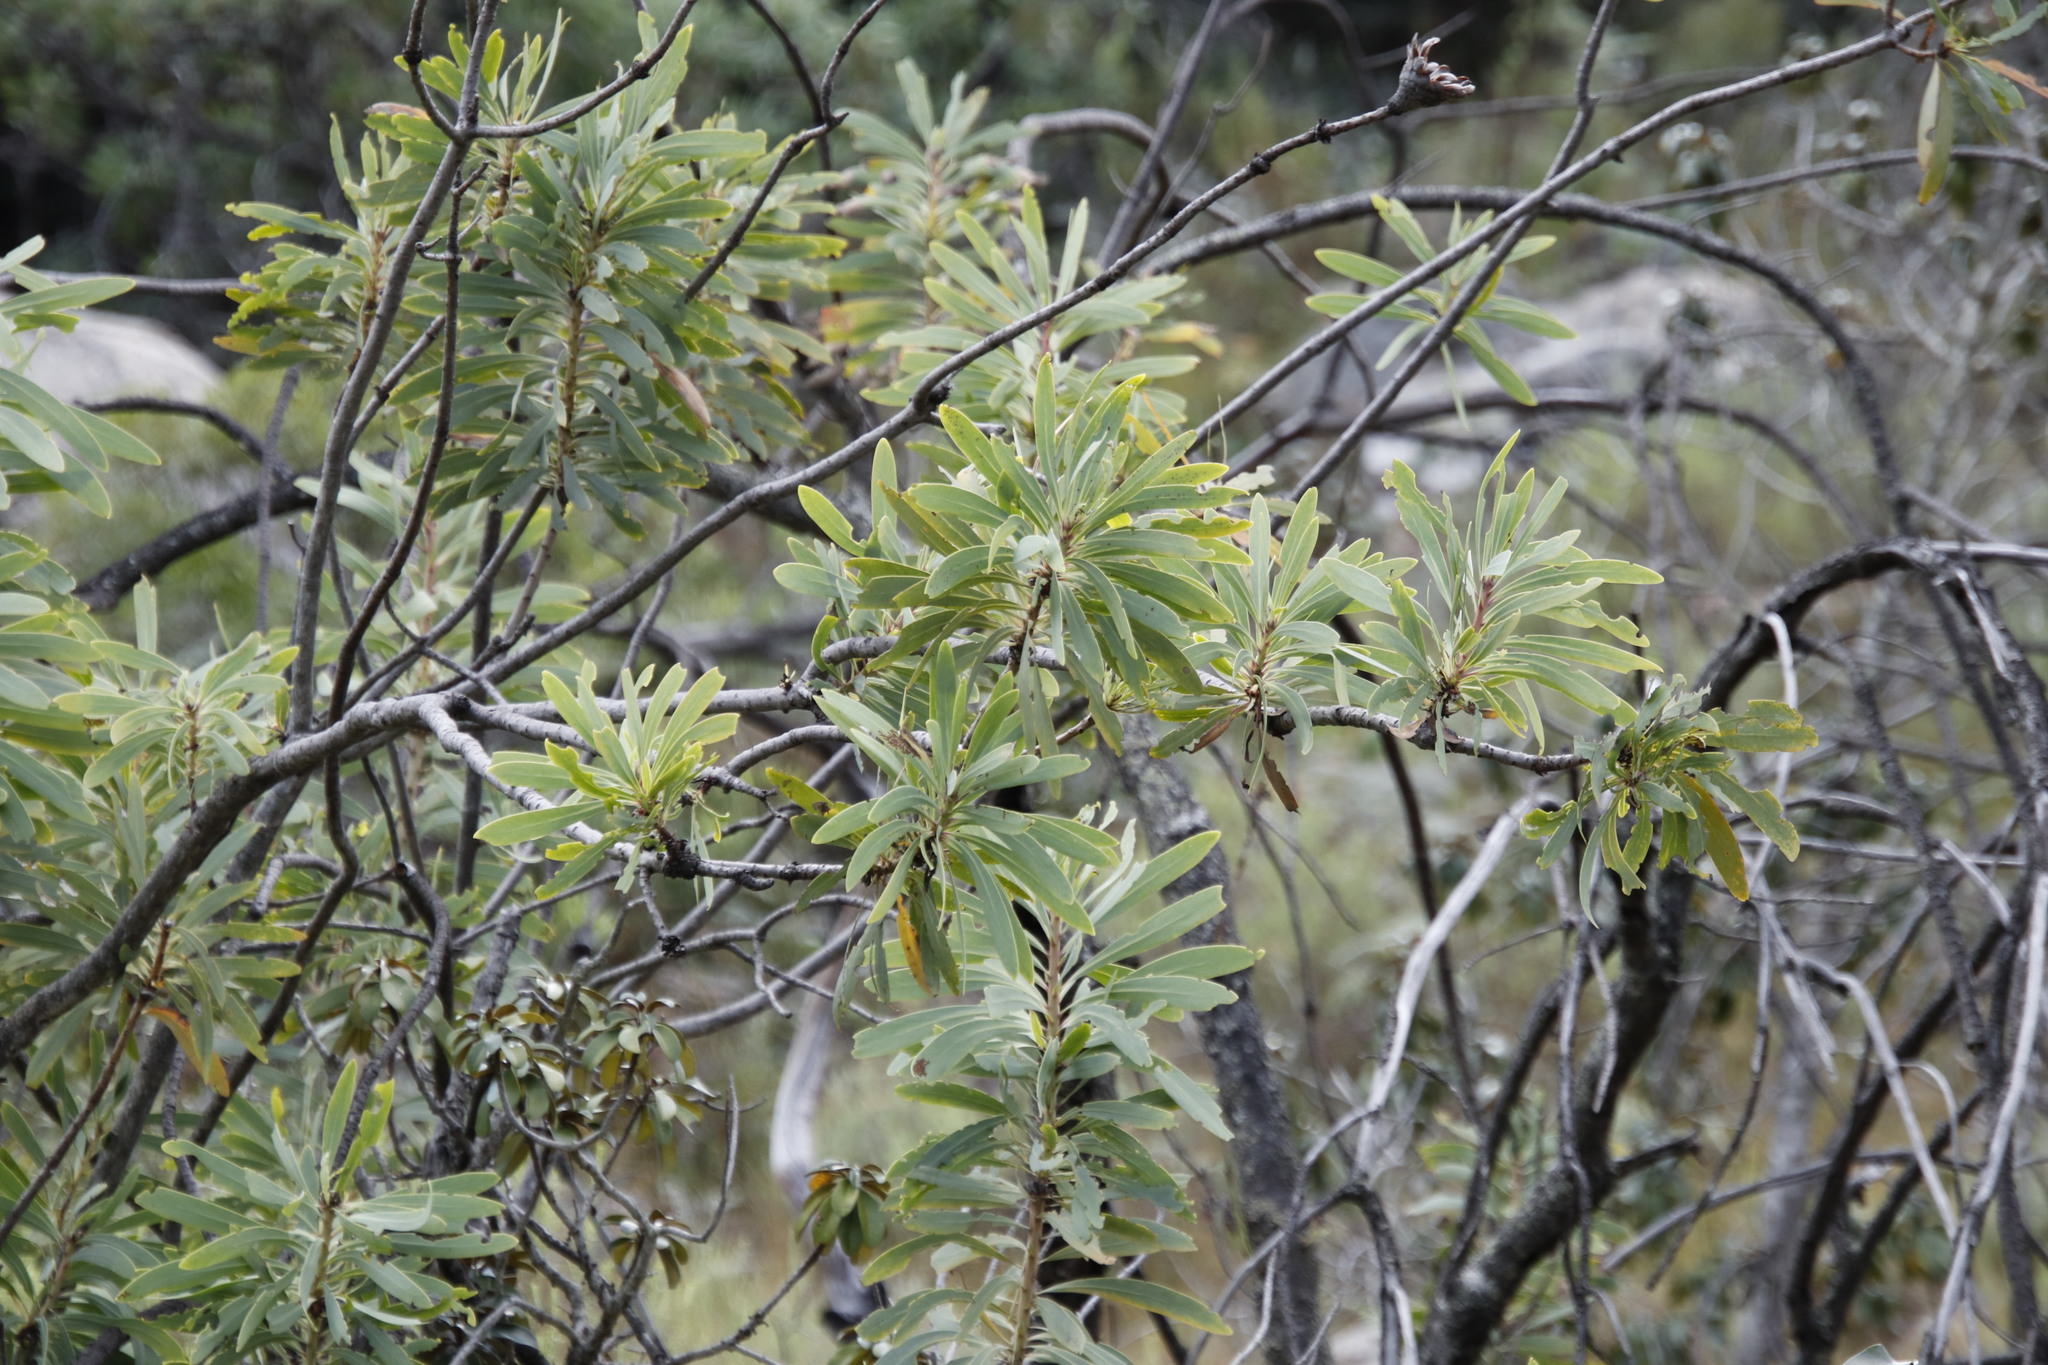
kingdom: Plantae
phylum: Tracheophyta
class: Magnoliopsida
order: Proteales
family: Proteaceae
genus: Protea
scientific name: Protea laetans
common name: Blyde protea
